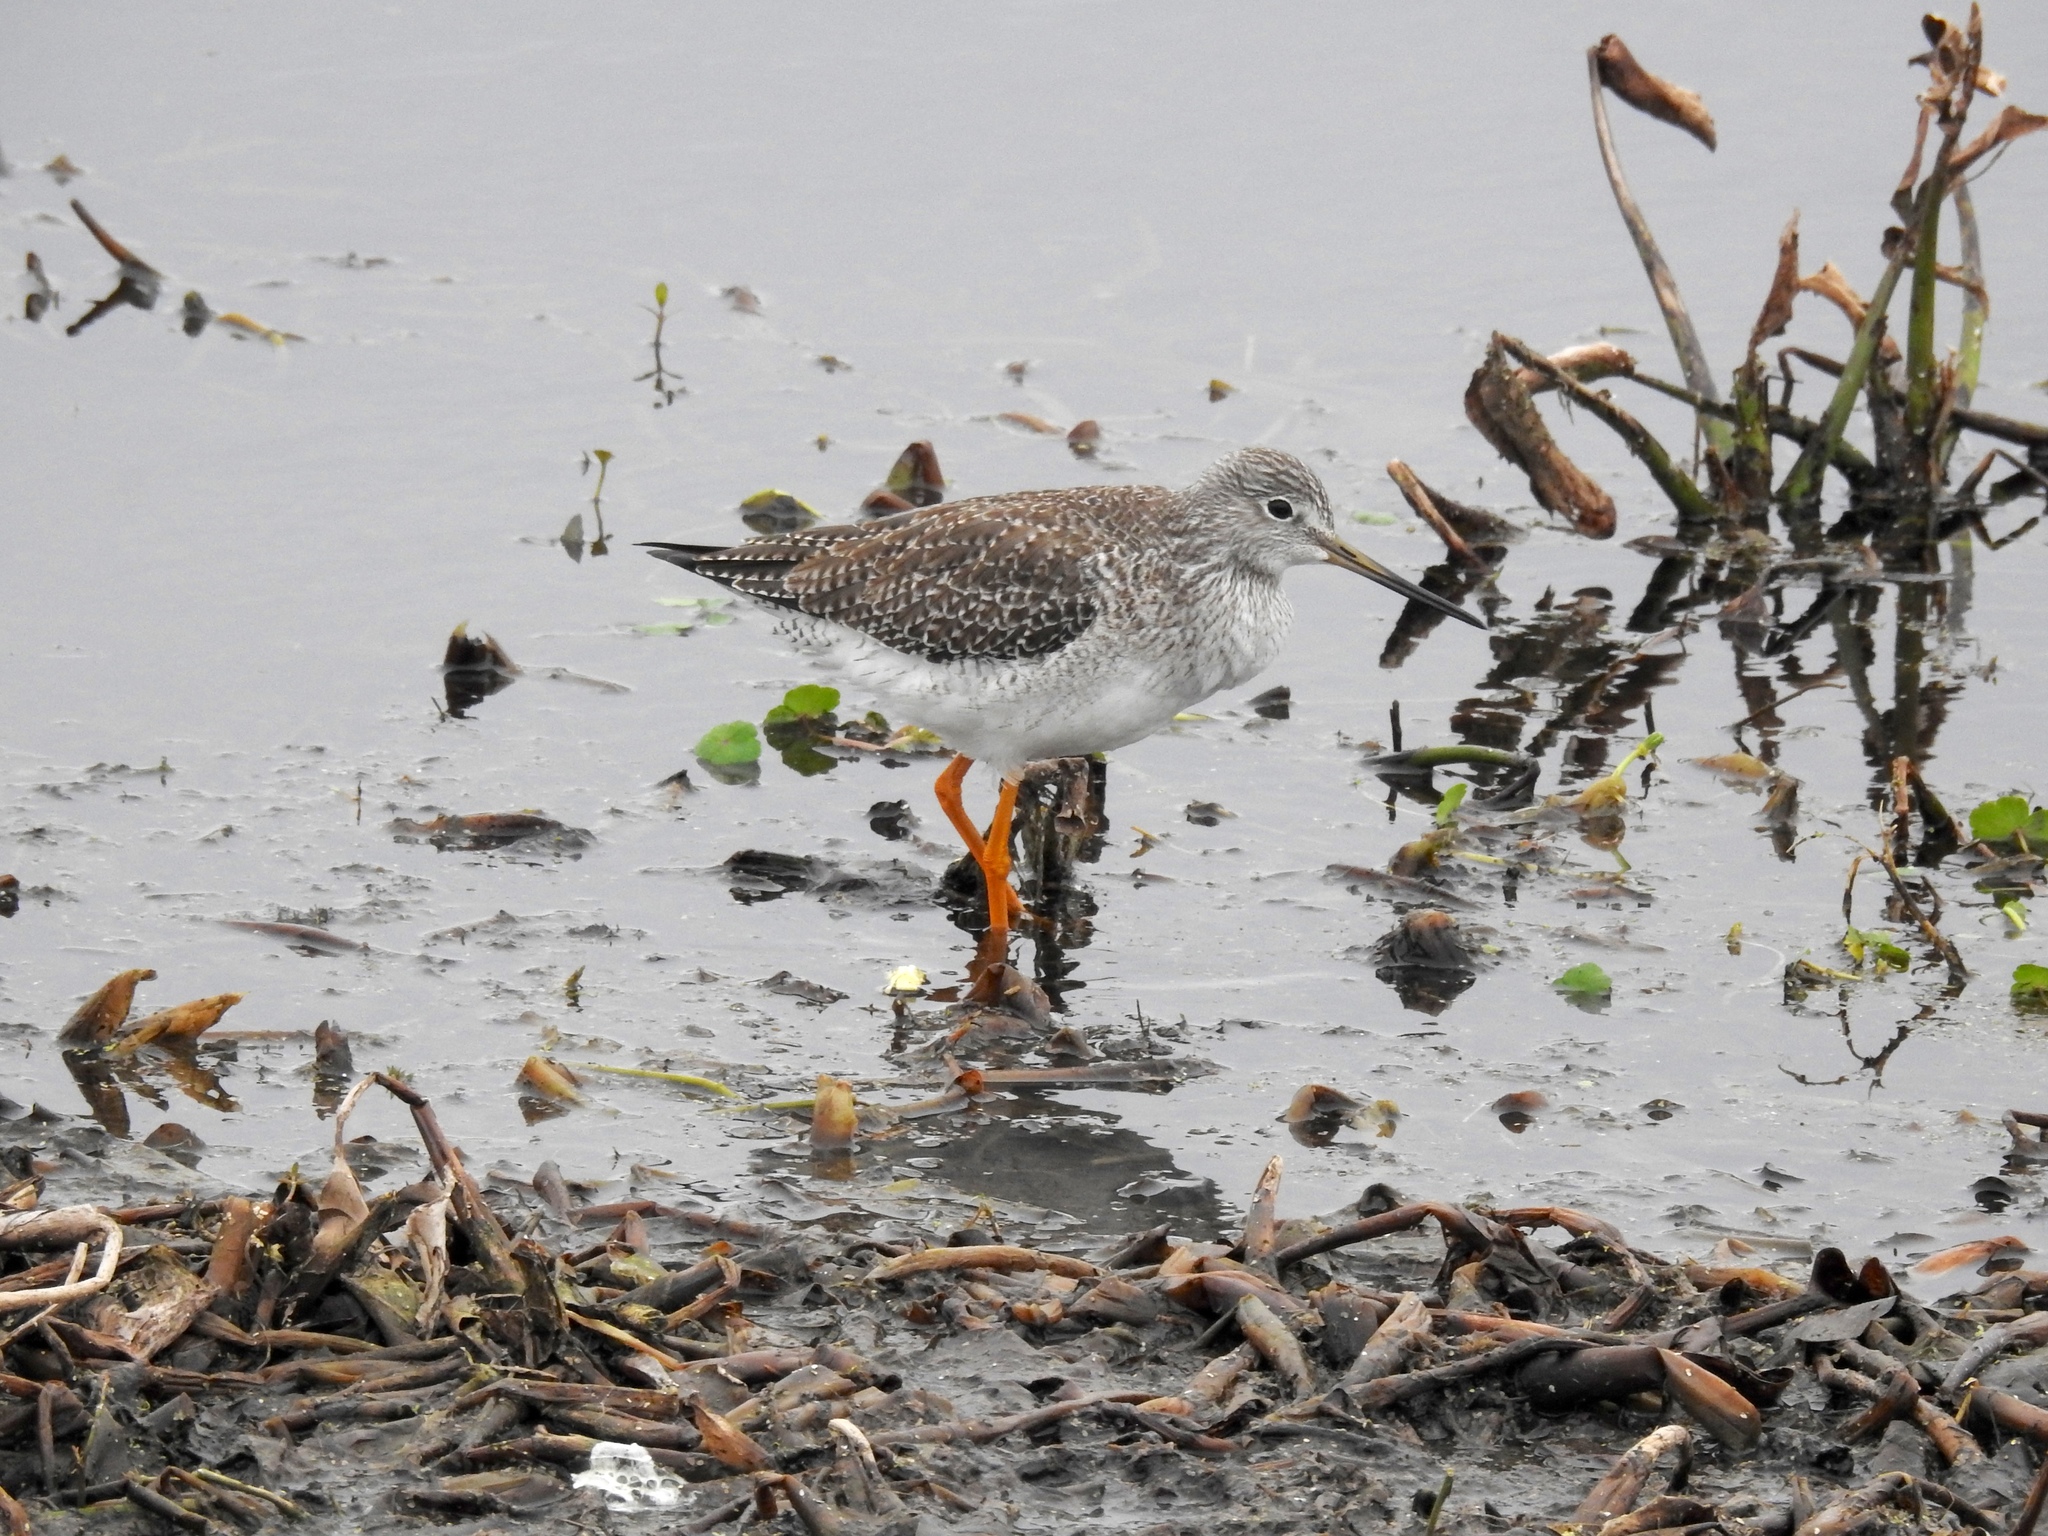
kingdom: Animalia
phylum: Chordata
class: Aves
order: Charadriiformes
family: Scolopacidae
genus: Tringa
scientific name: Tringa melanoleuca
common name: Greater yellowlegs
